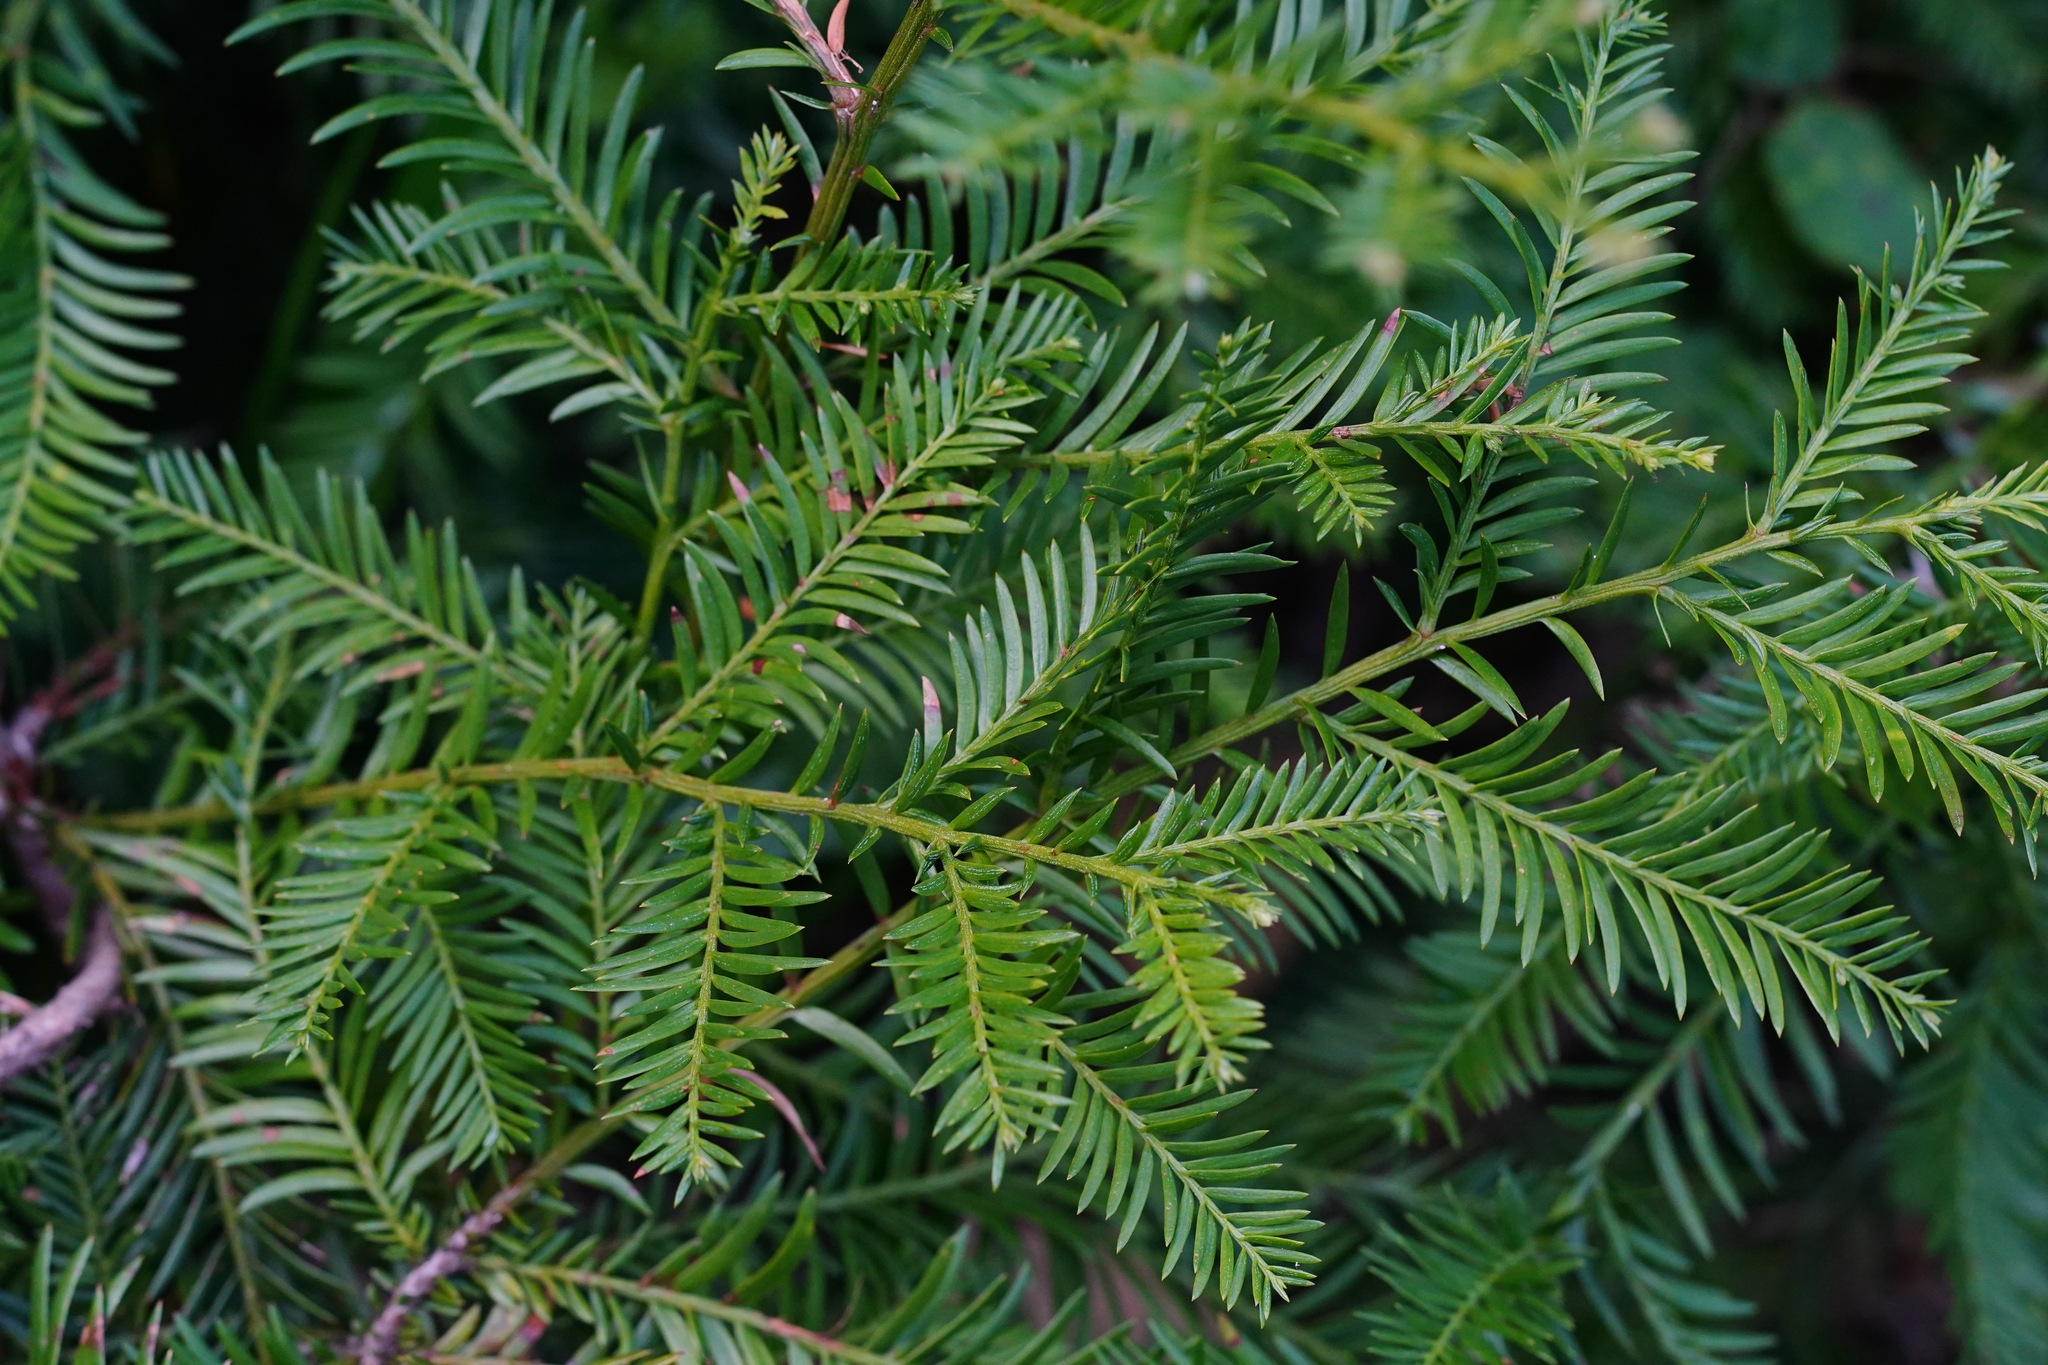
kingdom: Plantae
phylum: Tracheophyta
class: Pinopsida
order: Pinales
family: Cupressaceae
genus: Sequoia
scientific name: Sequoia sempervirens
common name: Coast redwood
